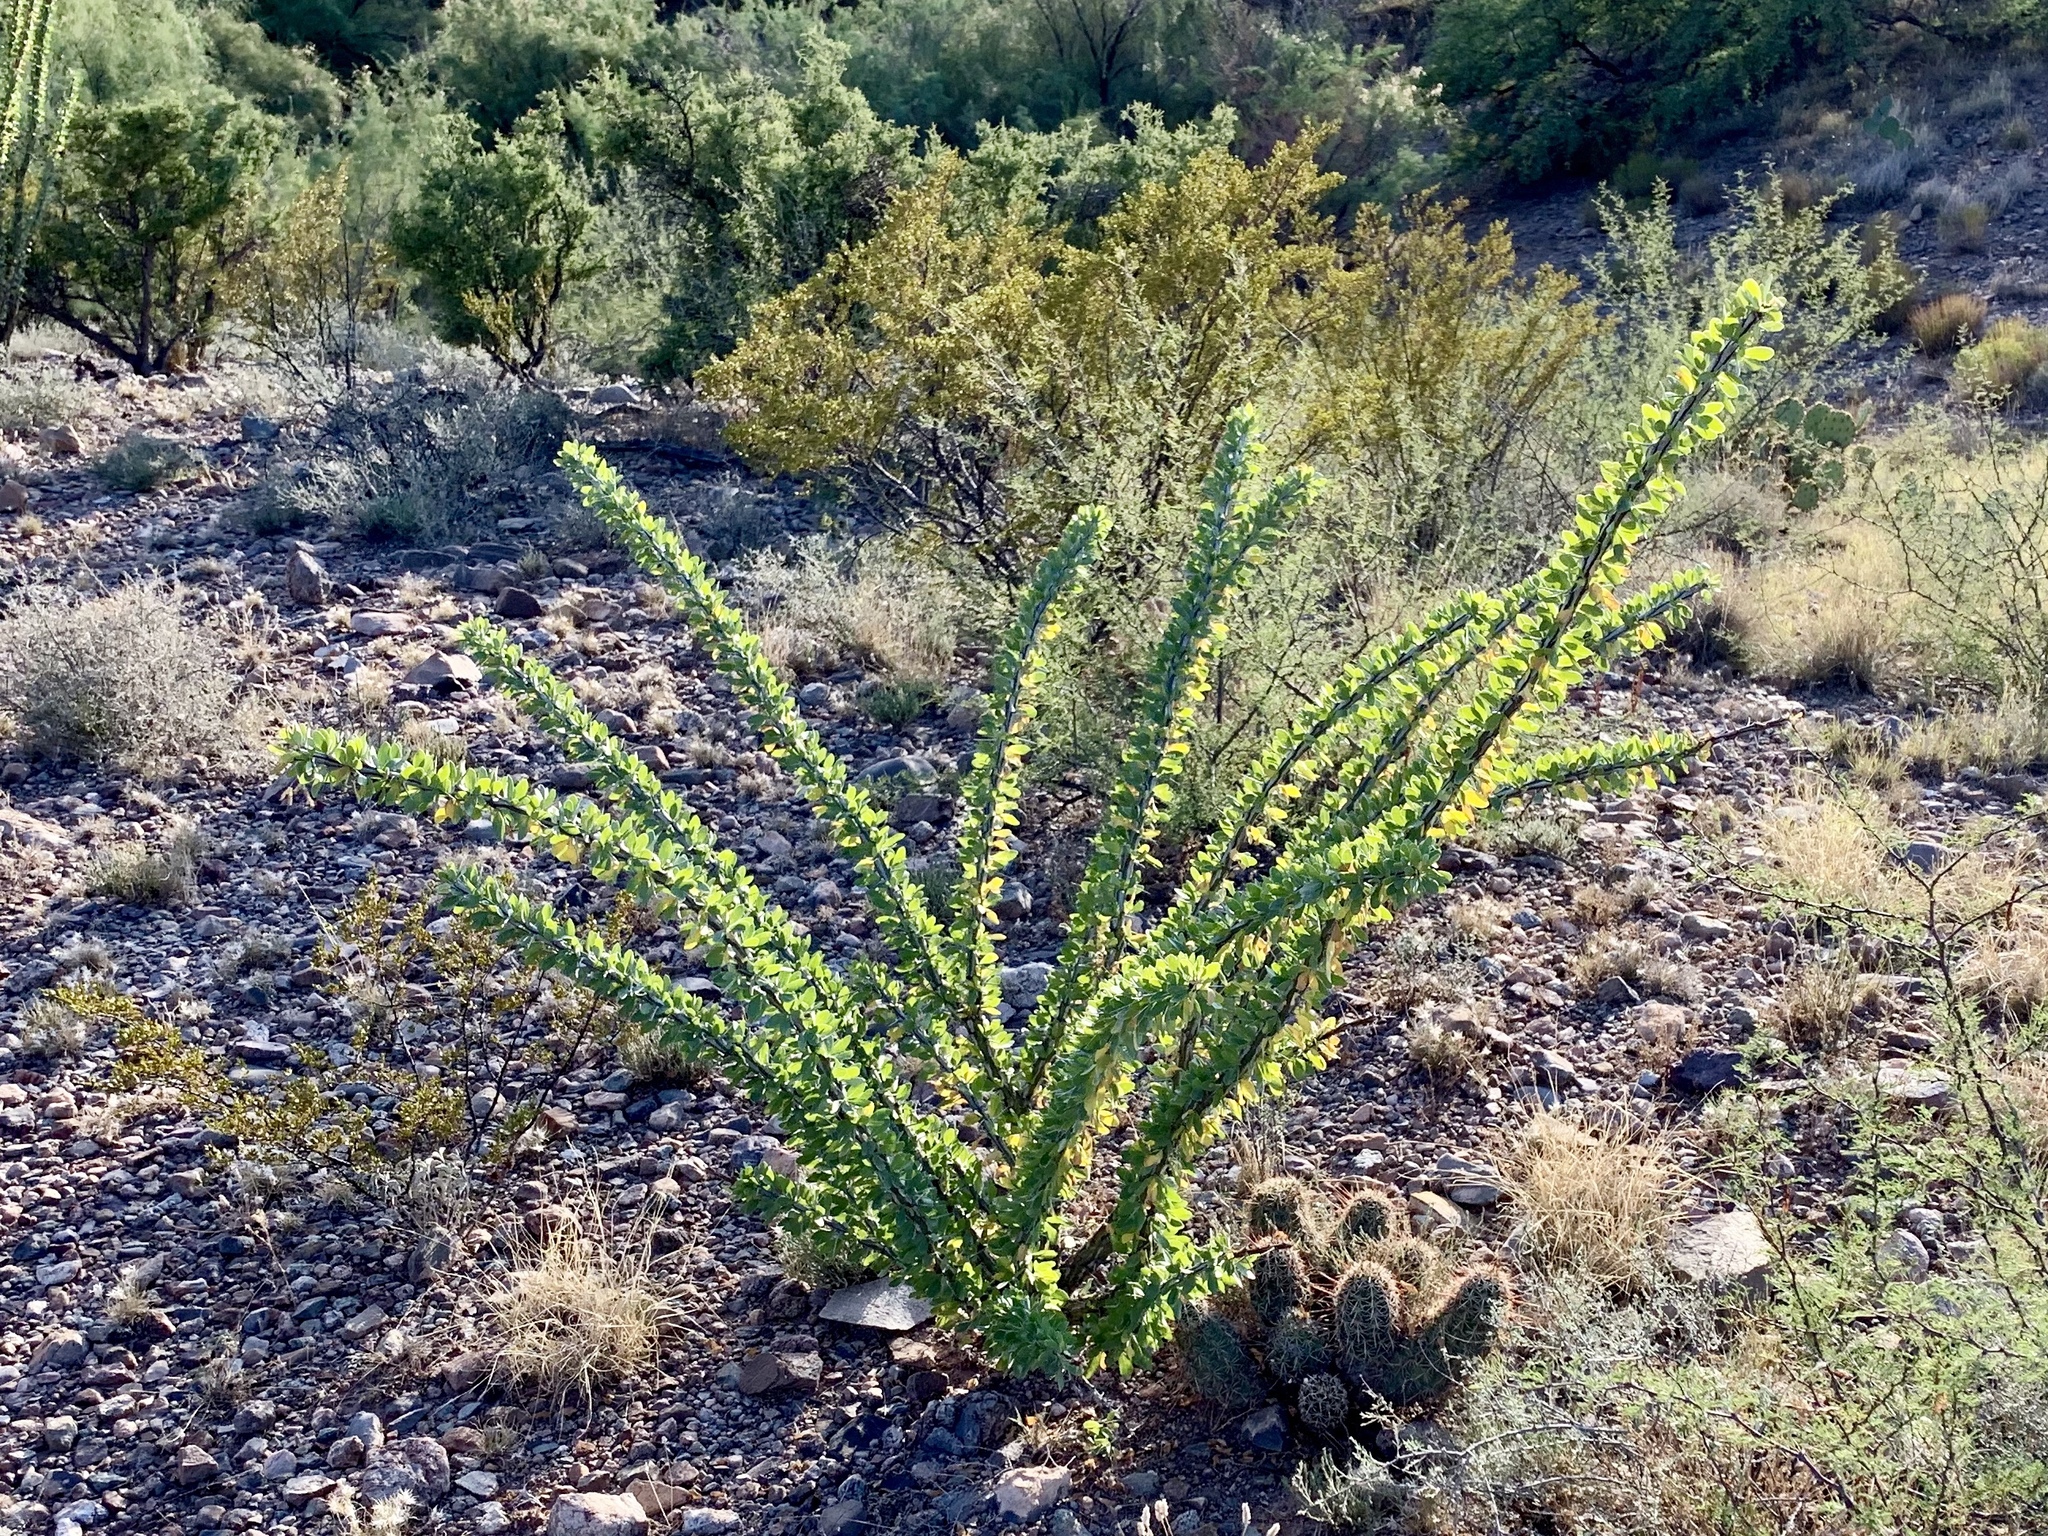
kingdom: Plantae
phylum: Tracheophyta
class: Magnoliopsida
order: Ericales
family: Fouquieriaceae
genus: Fouquieria
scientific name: Fouquieria splendens
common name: Vine-cactus
